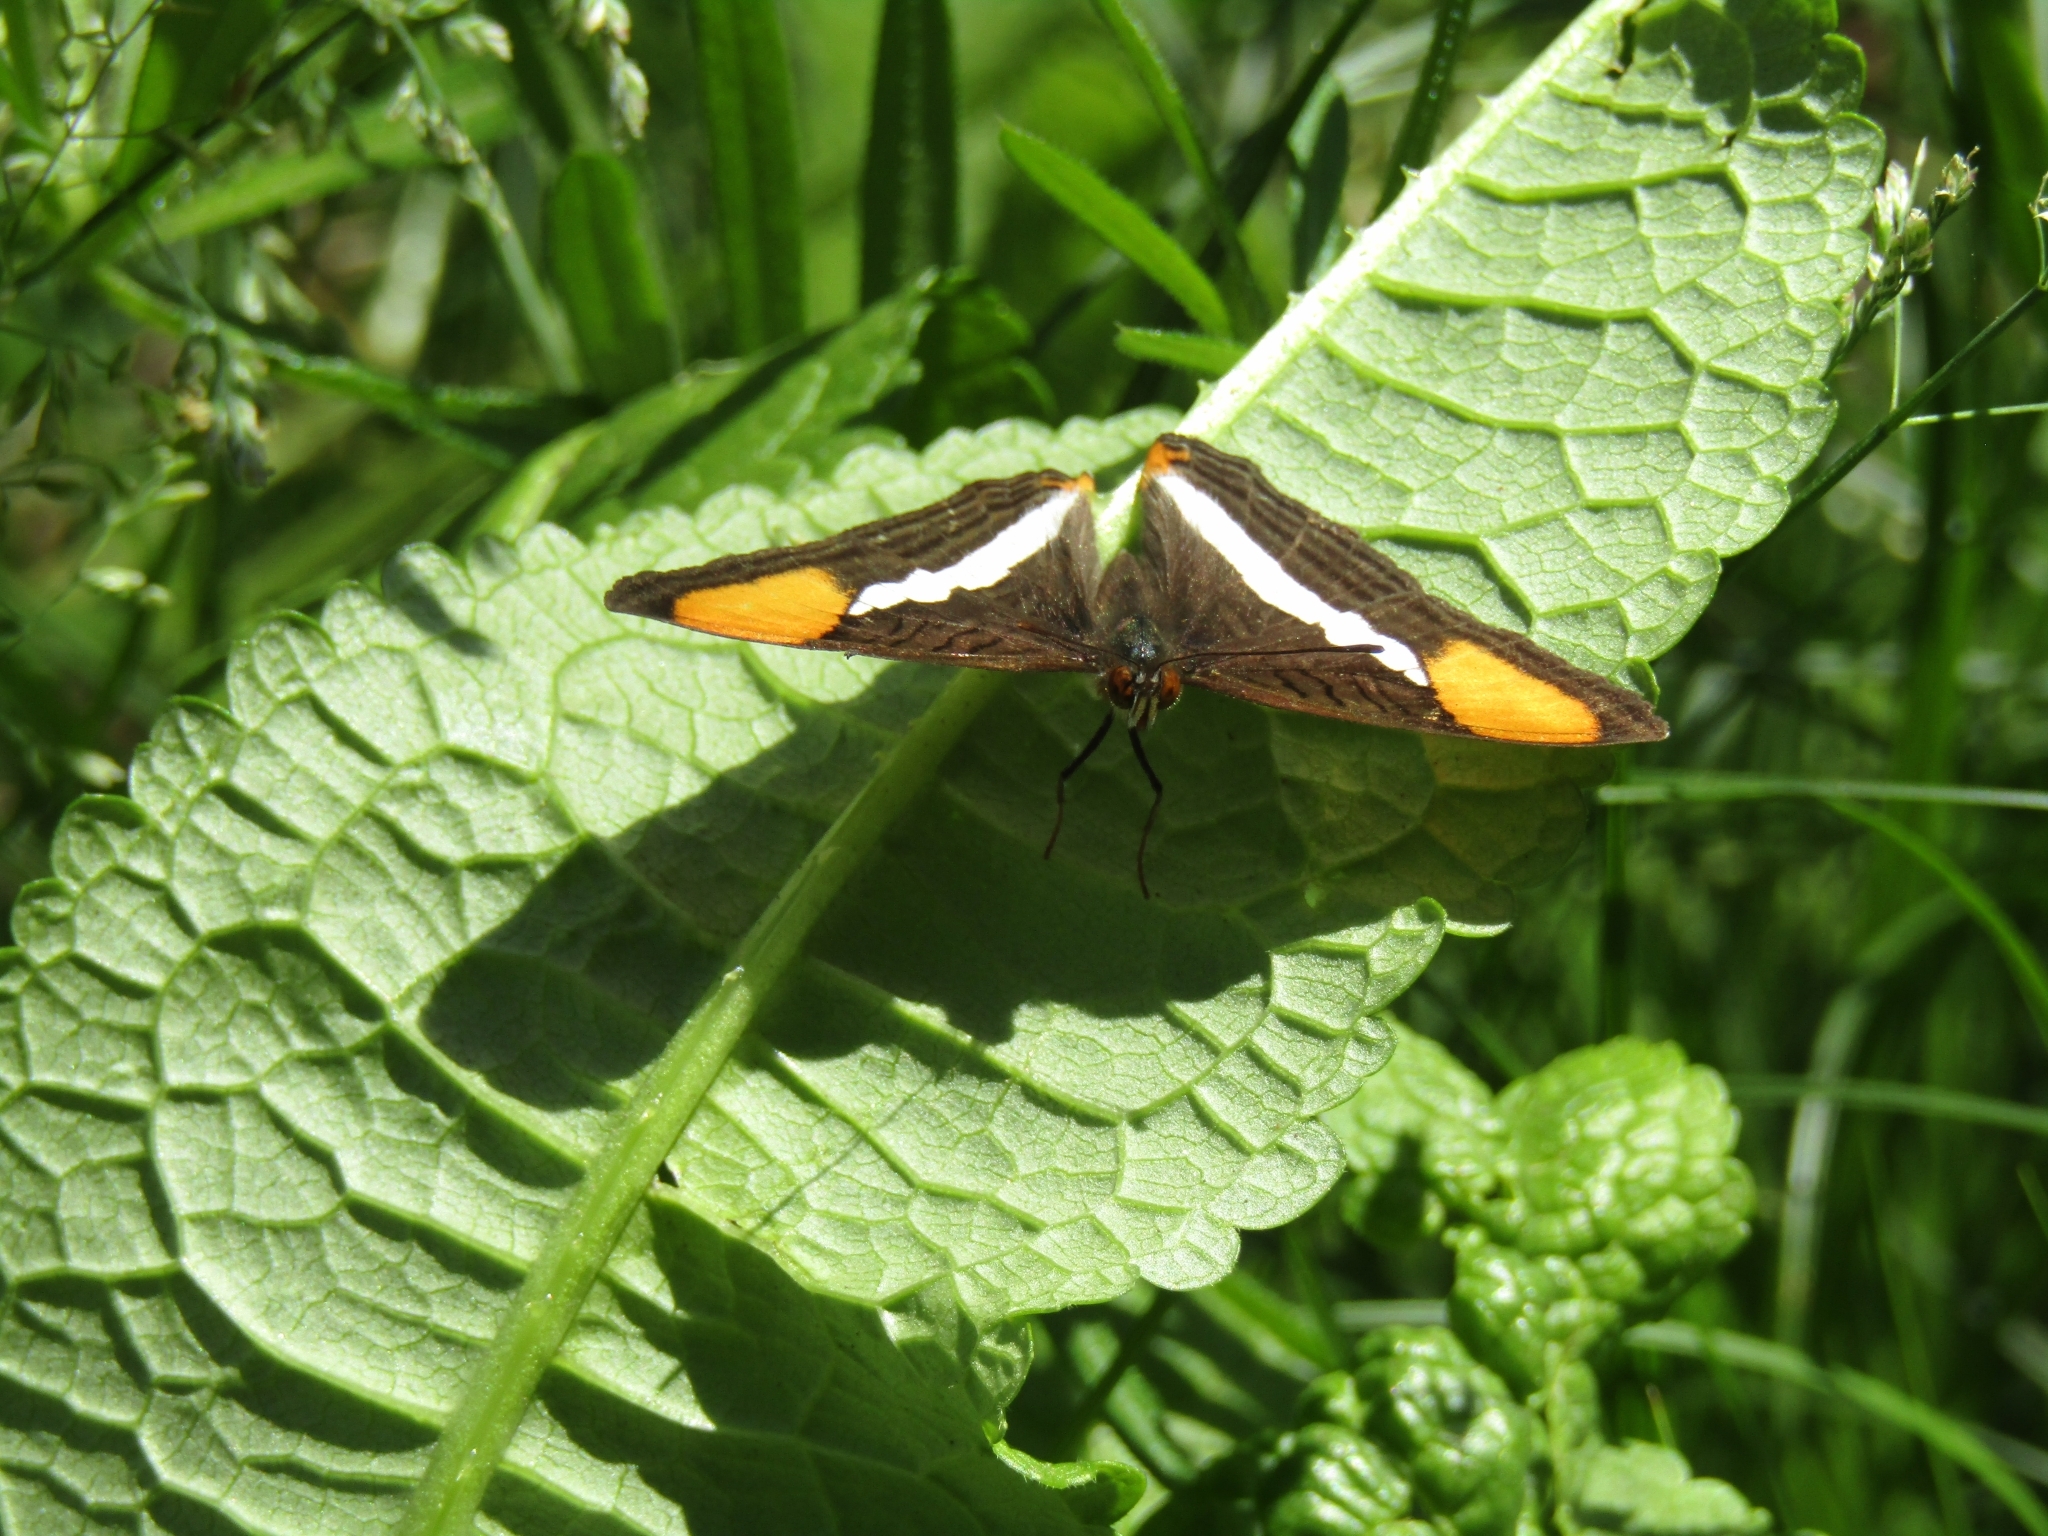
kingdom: Animalia
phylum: Arthropoda
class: Insecta
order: Lepidoptera
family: Nymphalidae
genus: Limenitis
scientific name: Limenitis syma
